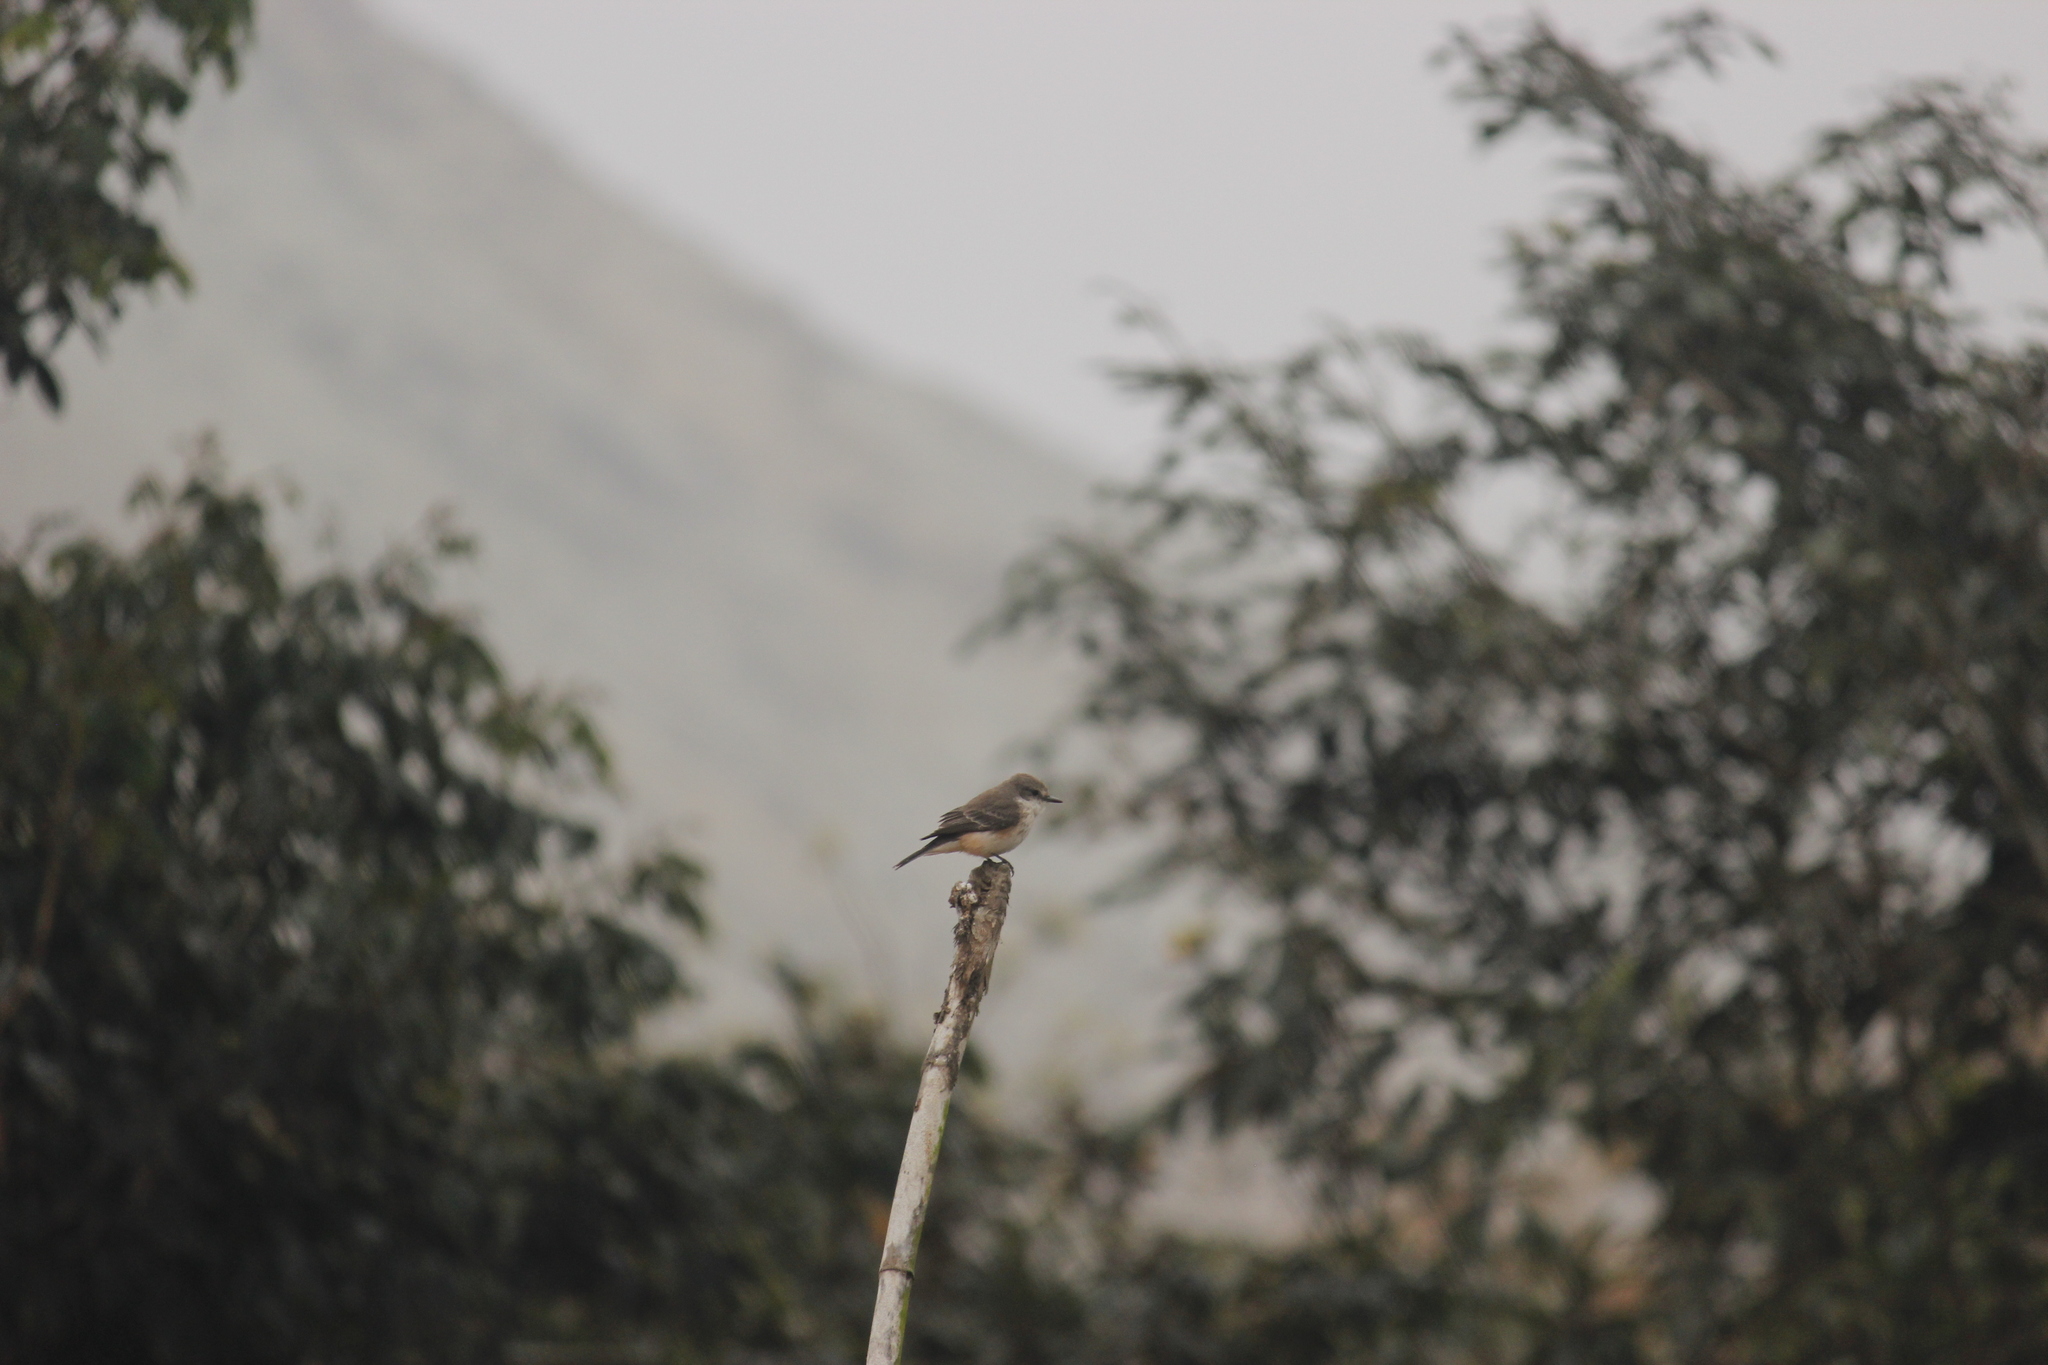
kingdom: Animalia
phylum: Chordata
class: Aves
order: Passeriformes
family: Tyrannidae
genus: Pyrocephalus
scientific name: Pyrocephalus rubinus
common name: Vermilion flycatcher
